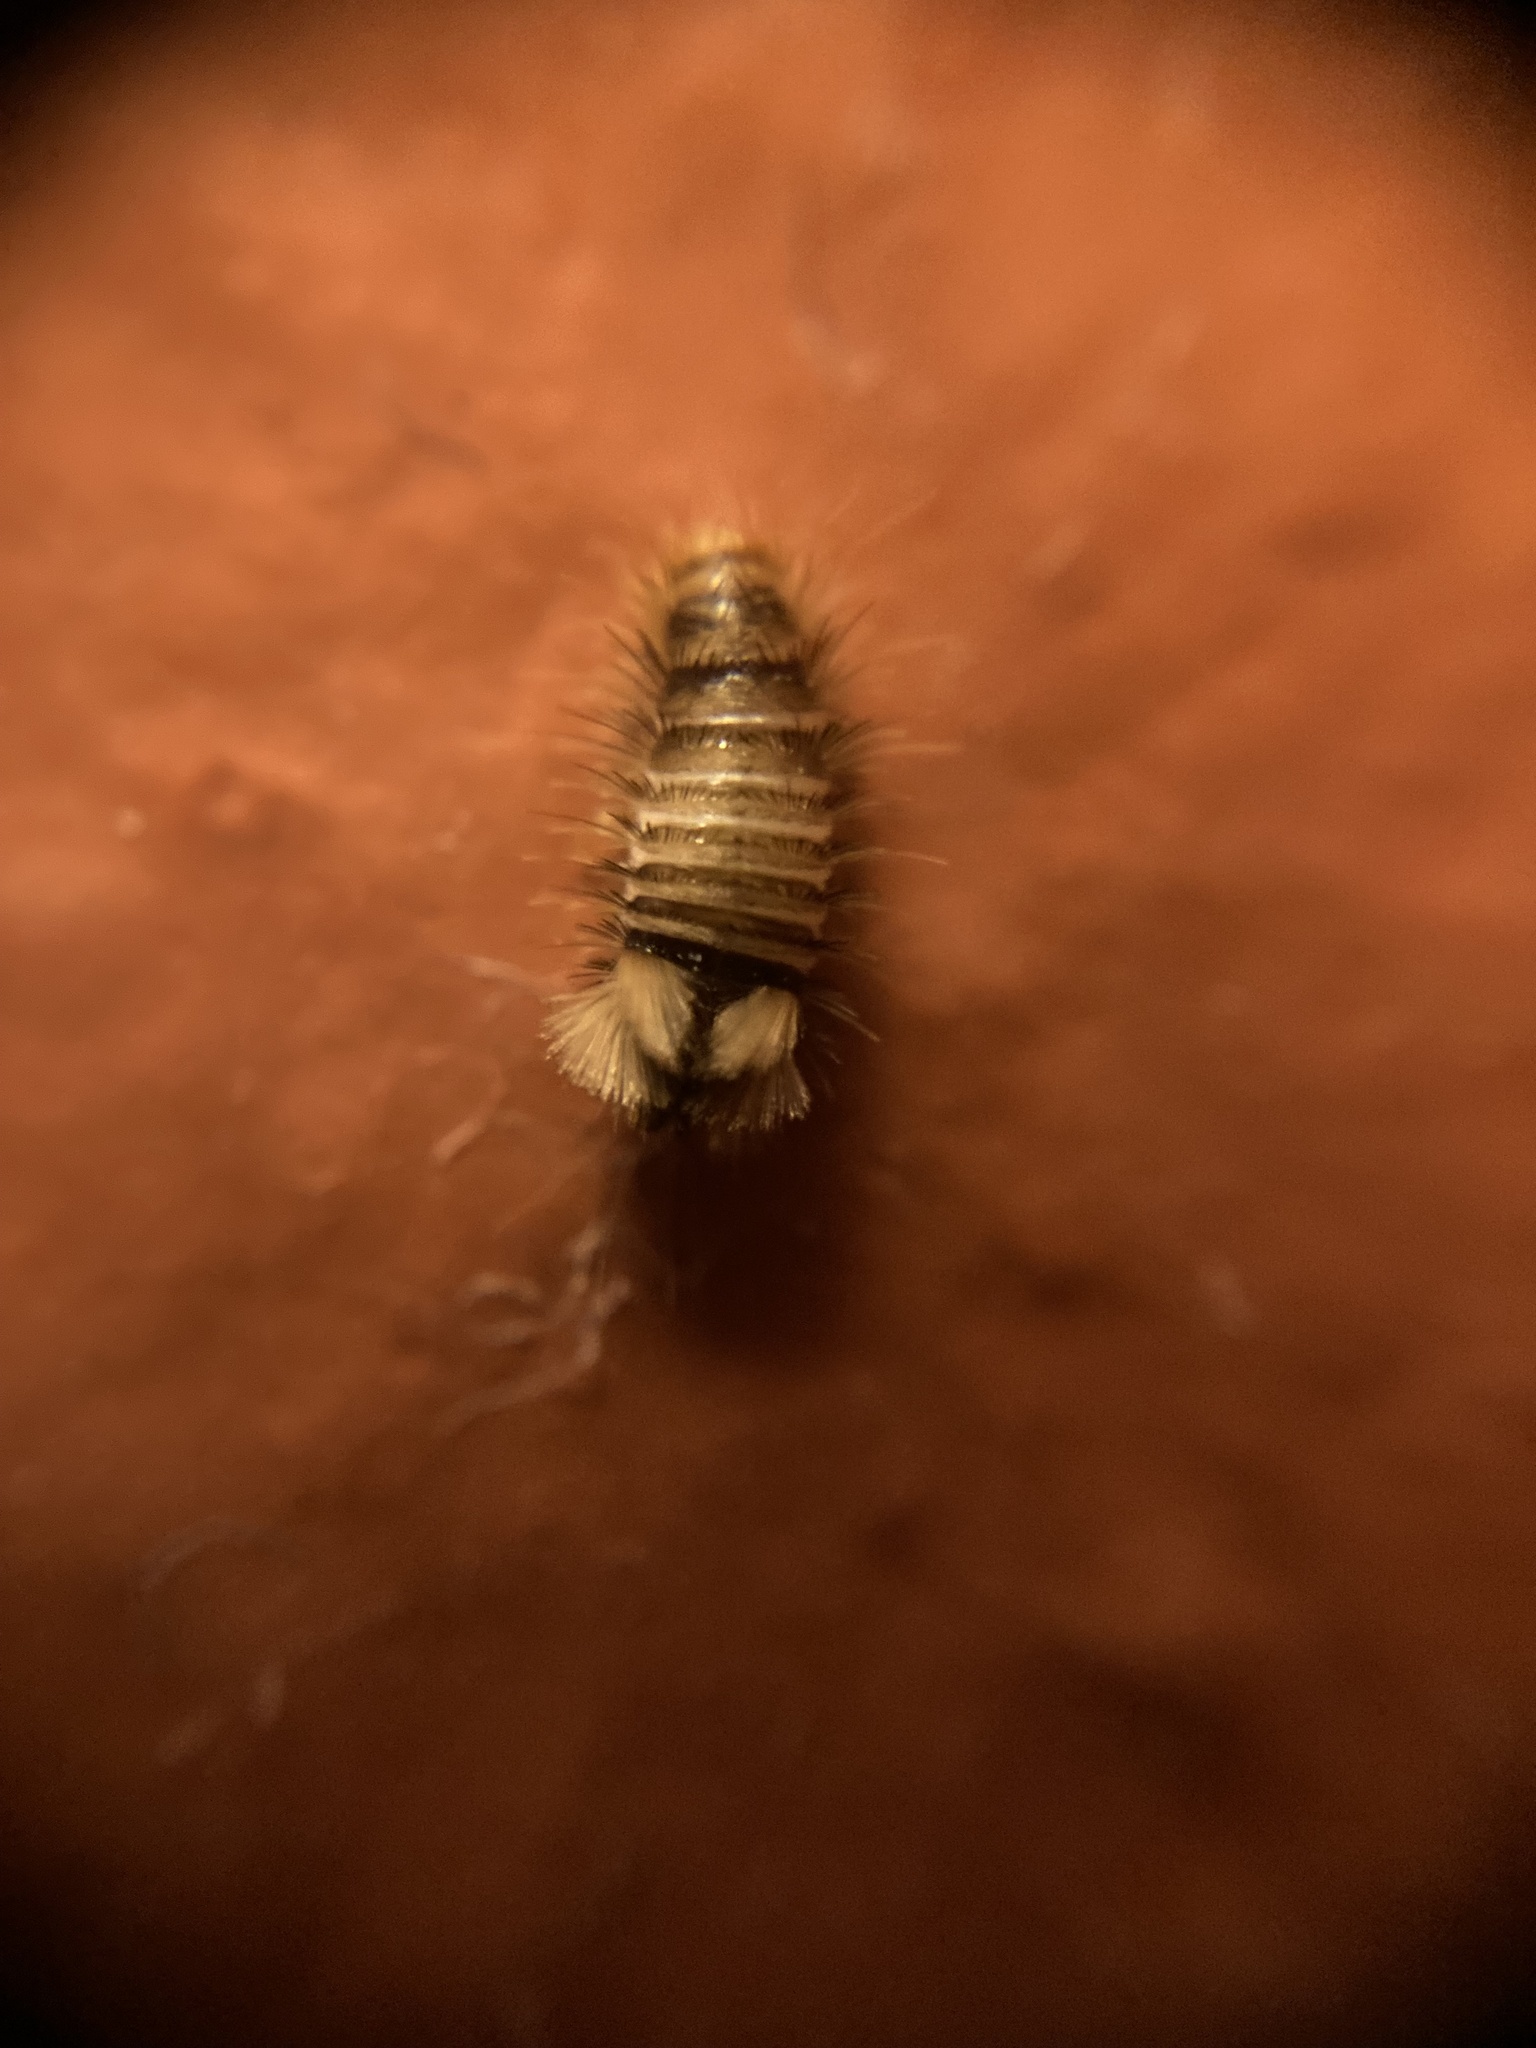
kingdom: Animalia
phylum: Arthropoda
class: Insecta
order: Coleoptera
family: Dermestidae
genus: Anthrenus
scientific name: Anthrenus verbasci
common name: Varied carpet beetle
